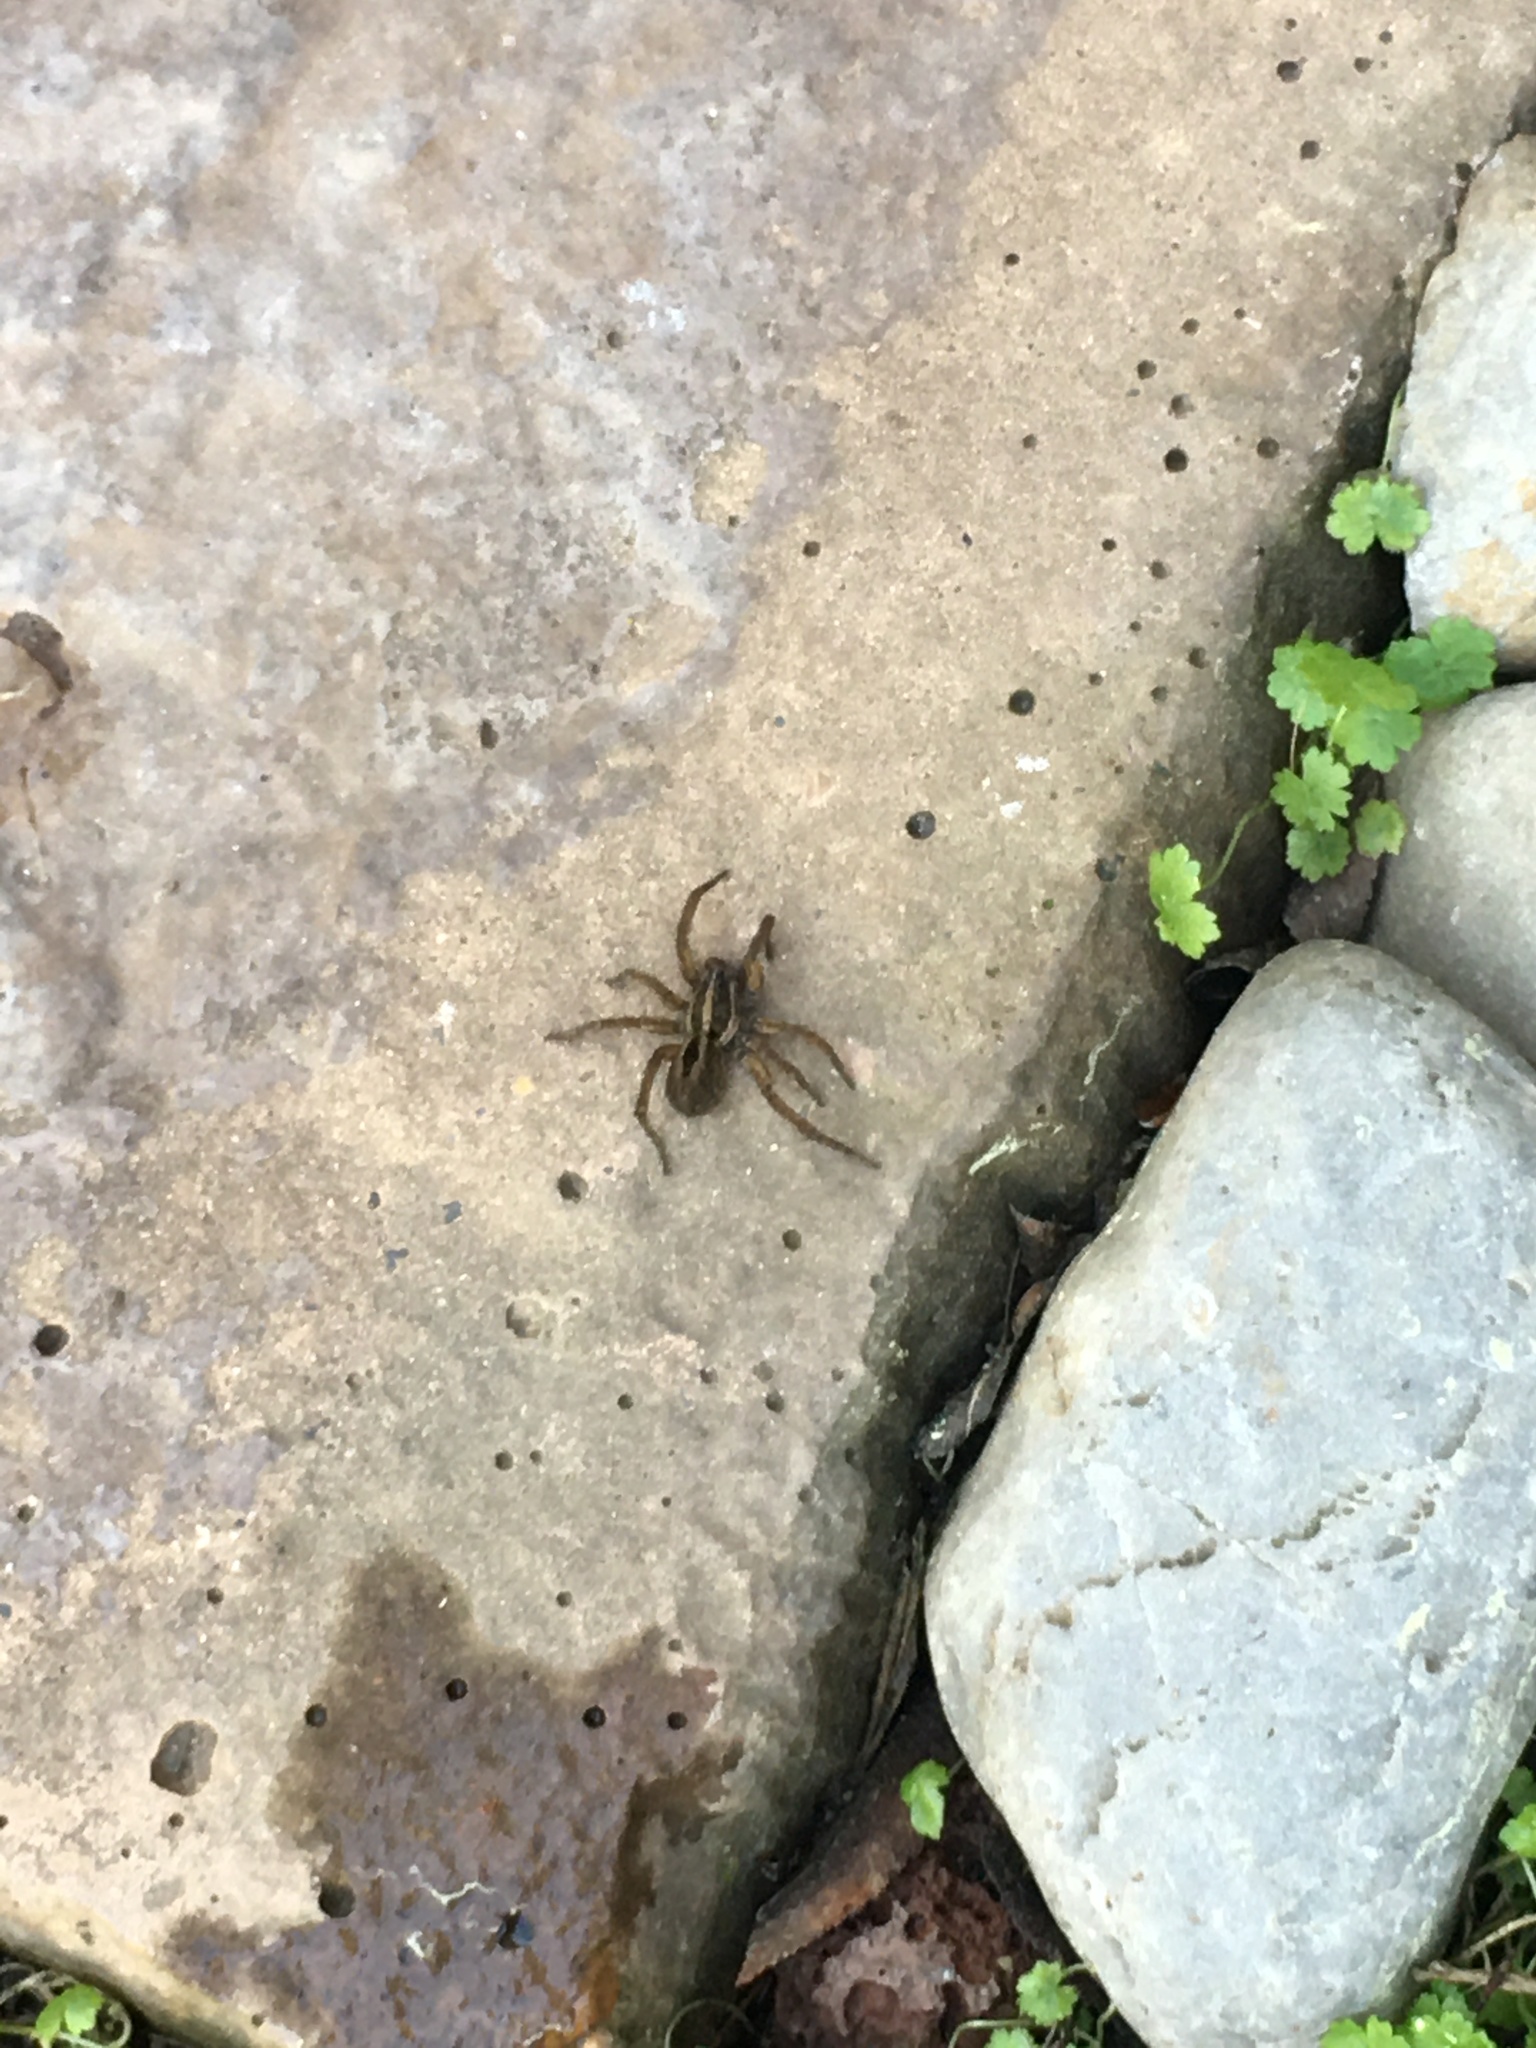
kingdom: Animalia
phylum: Arthropoda
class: Arachnida
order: Araneae
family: Lycosidae
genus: Tigrosa
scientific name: Tigrosa annexa
